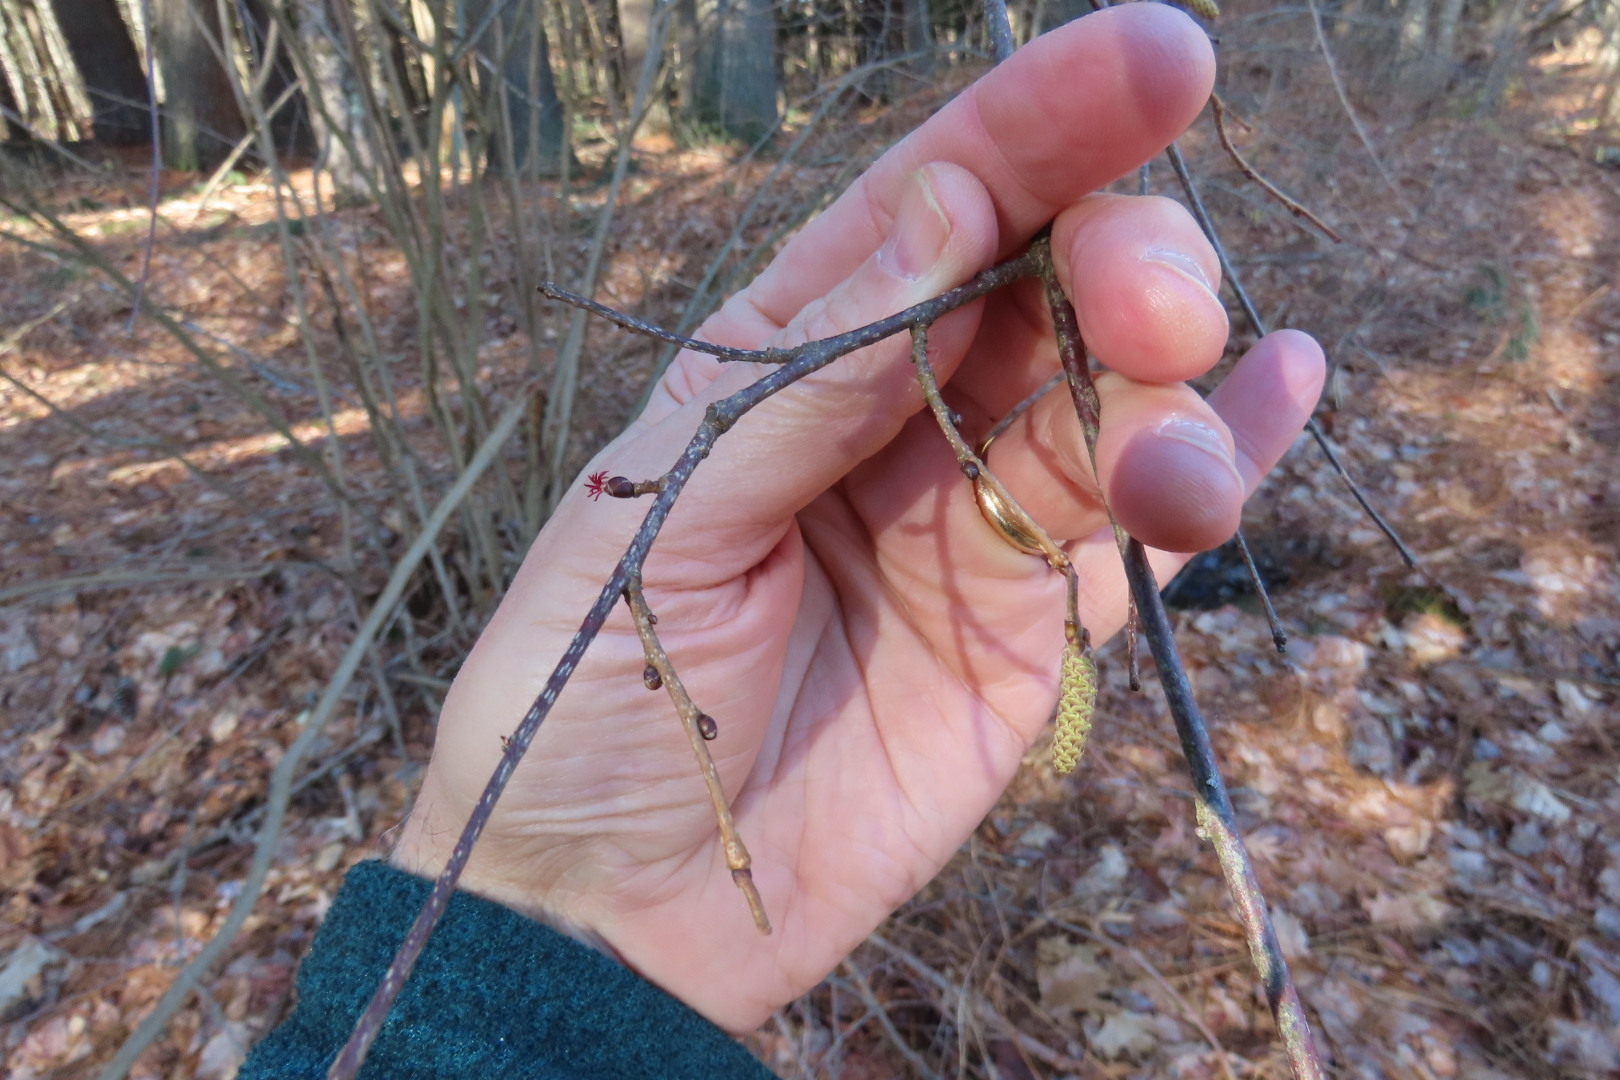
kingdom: Plantae
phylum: Tracheophyta
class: Magnoliopsida
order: Fagales
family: Betulaceae
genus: Corylus
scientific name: Corylus americana
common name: American hazel
